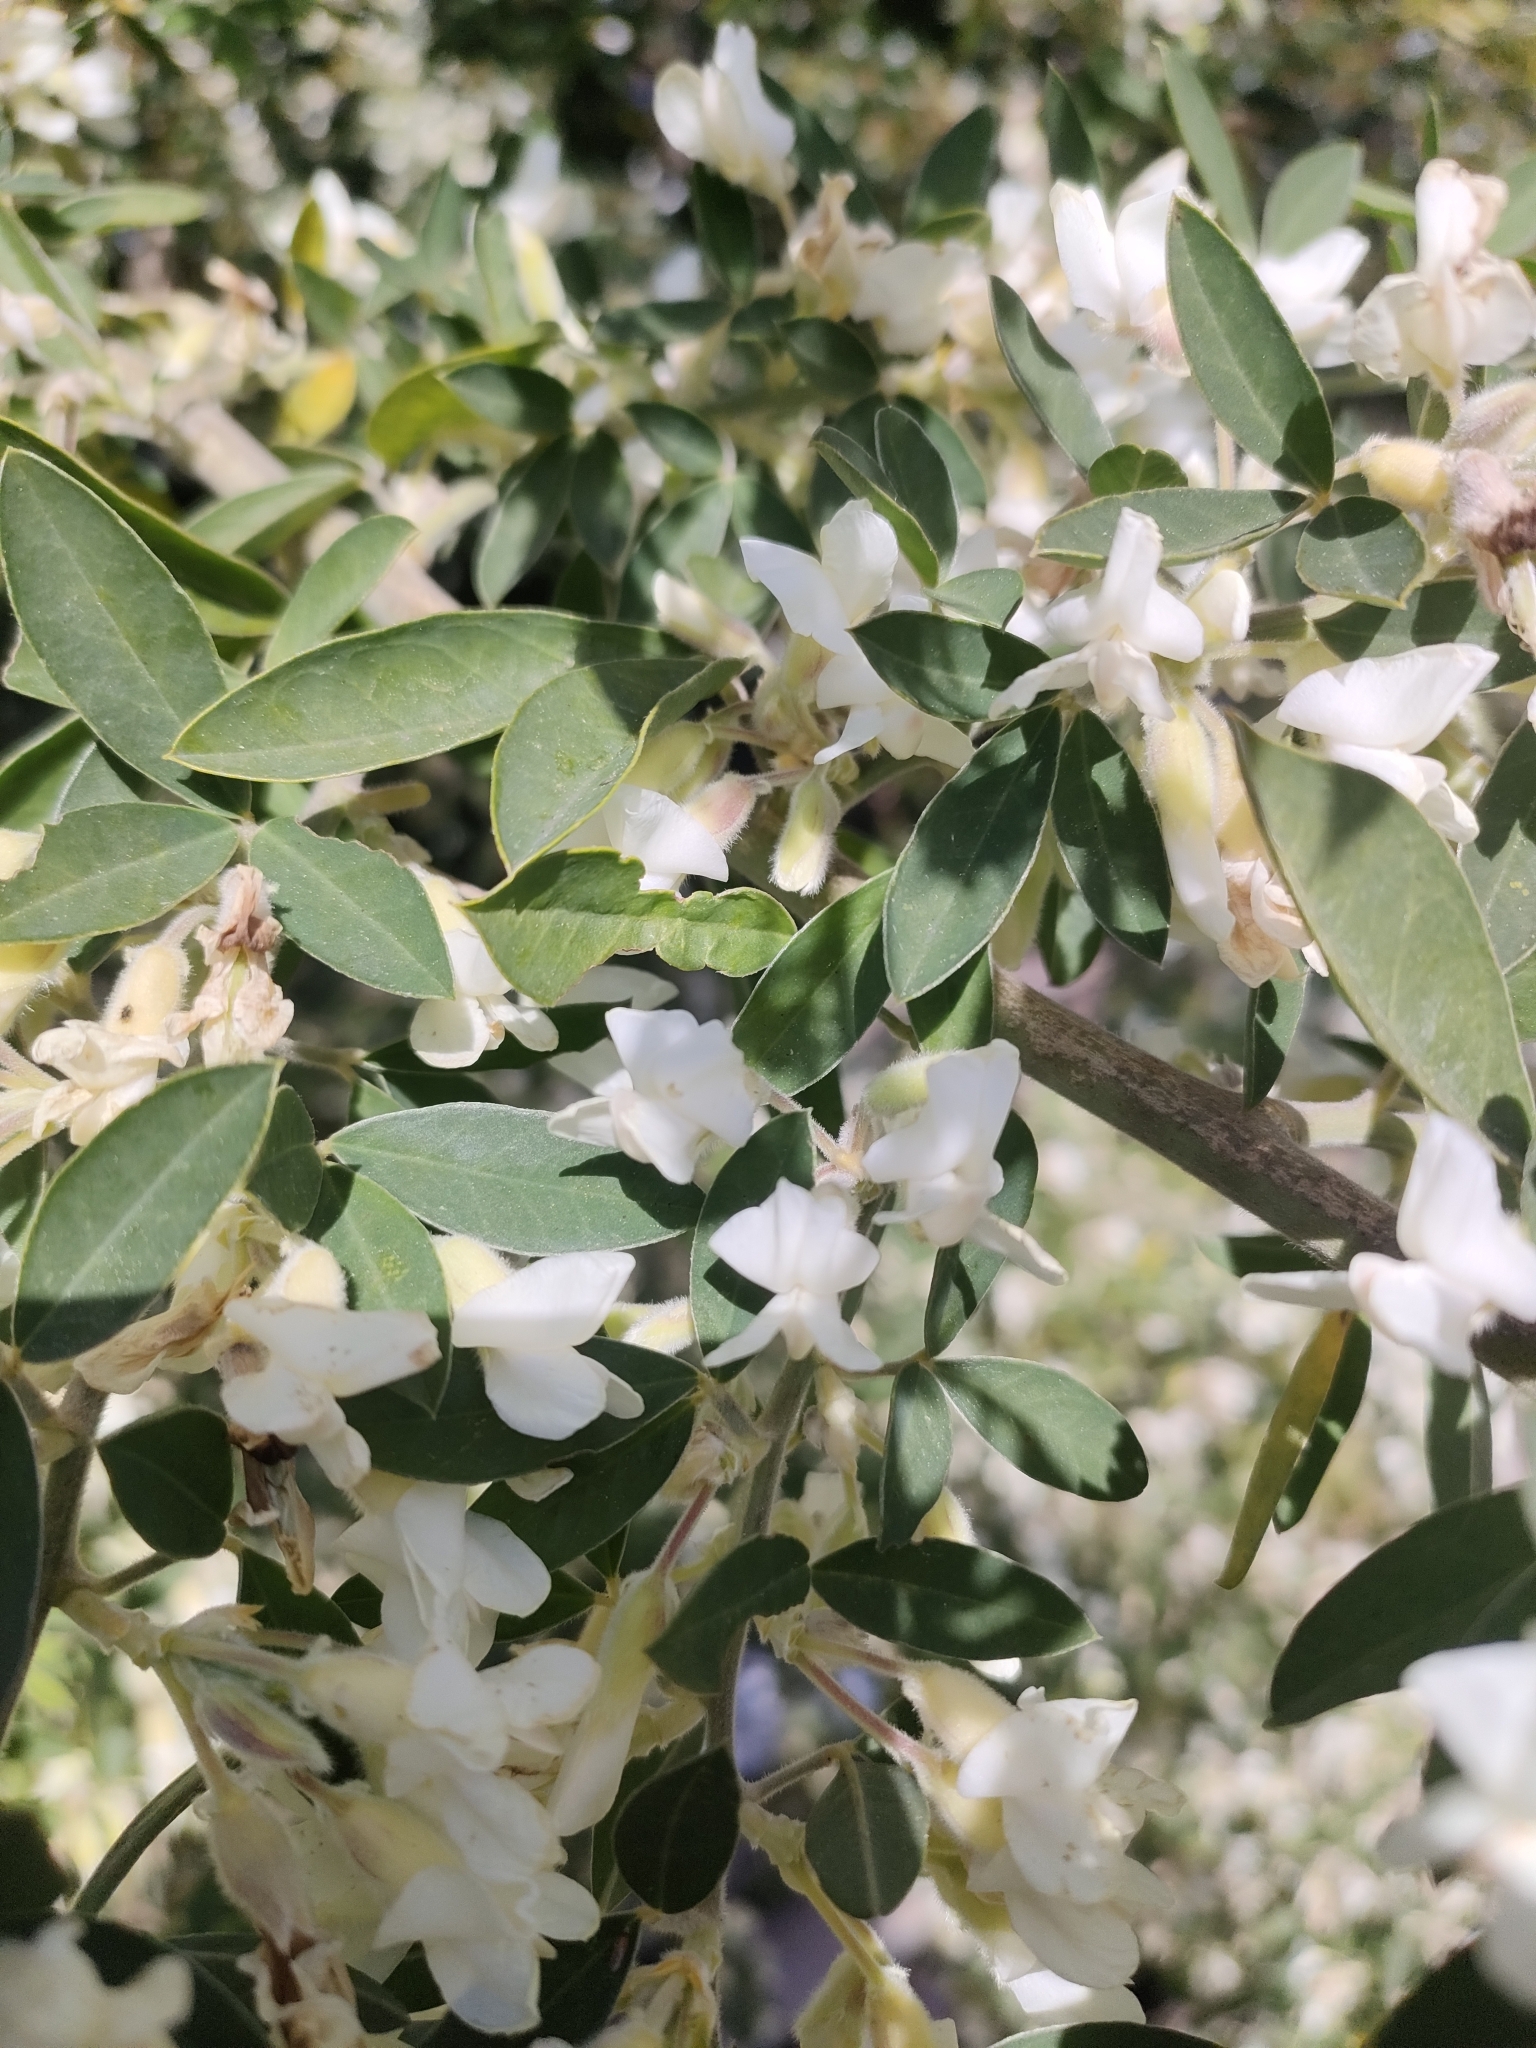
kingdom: Plantae
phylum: Tracheophyta
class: Magnoliopsida
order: Fabales
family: Fabaceae
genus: Chamaecytisus
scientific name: Chamaecytisus prolifer
